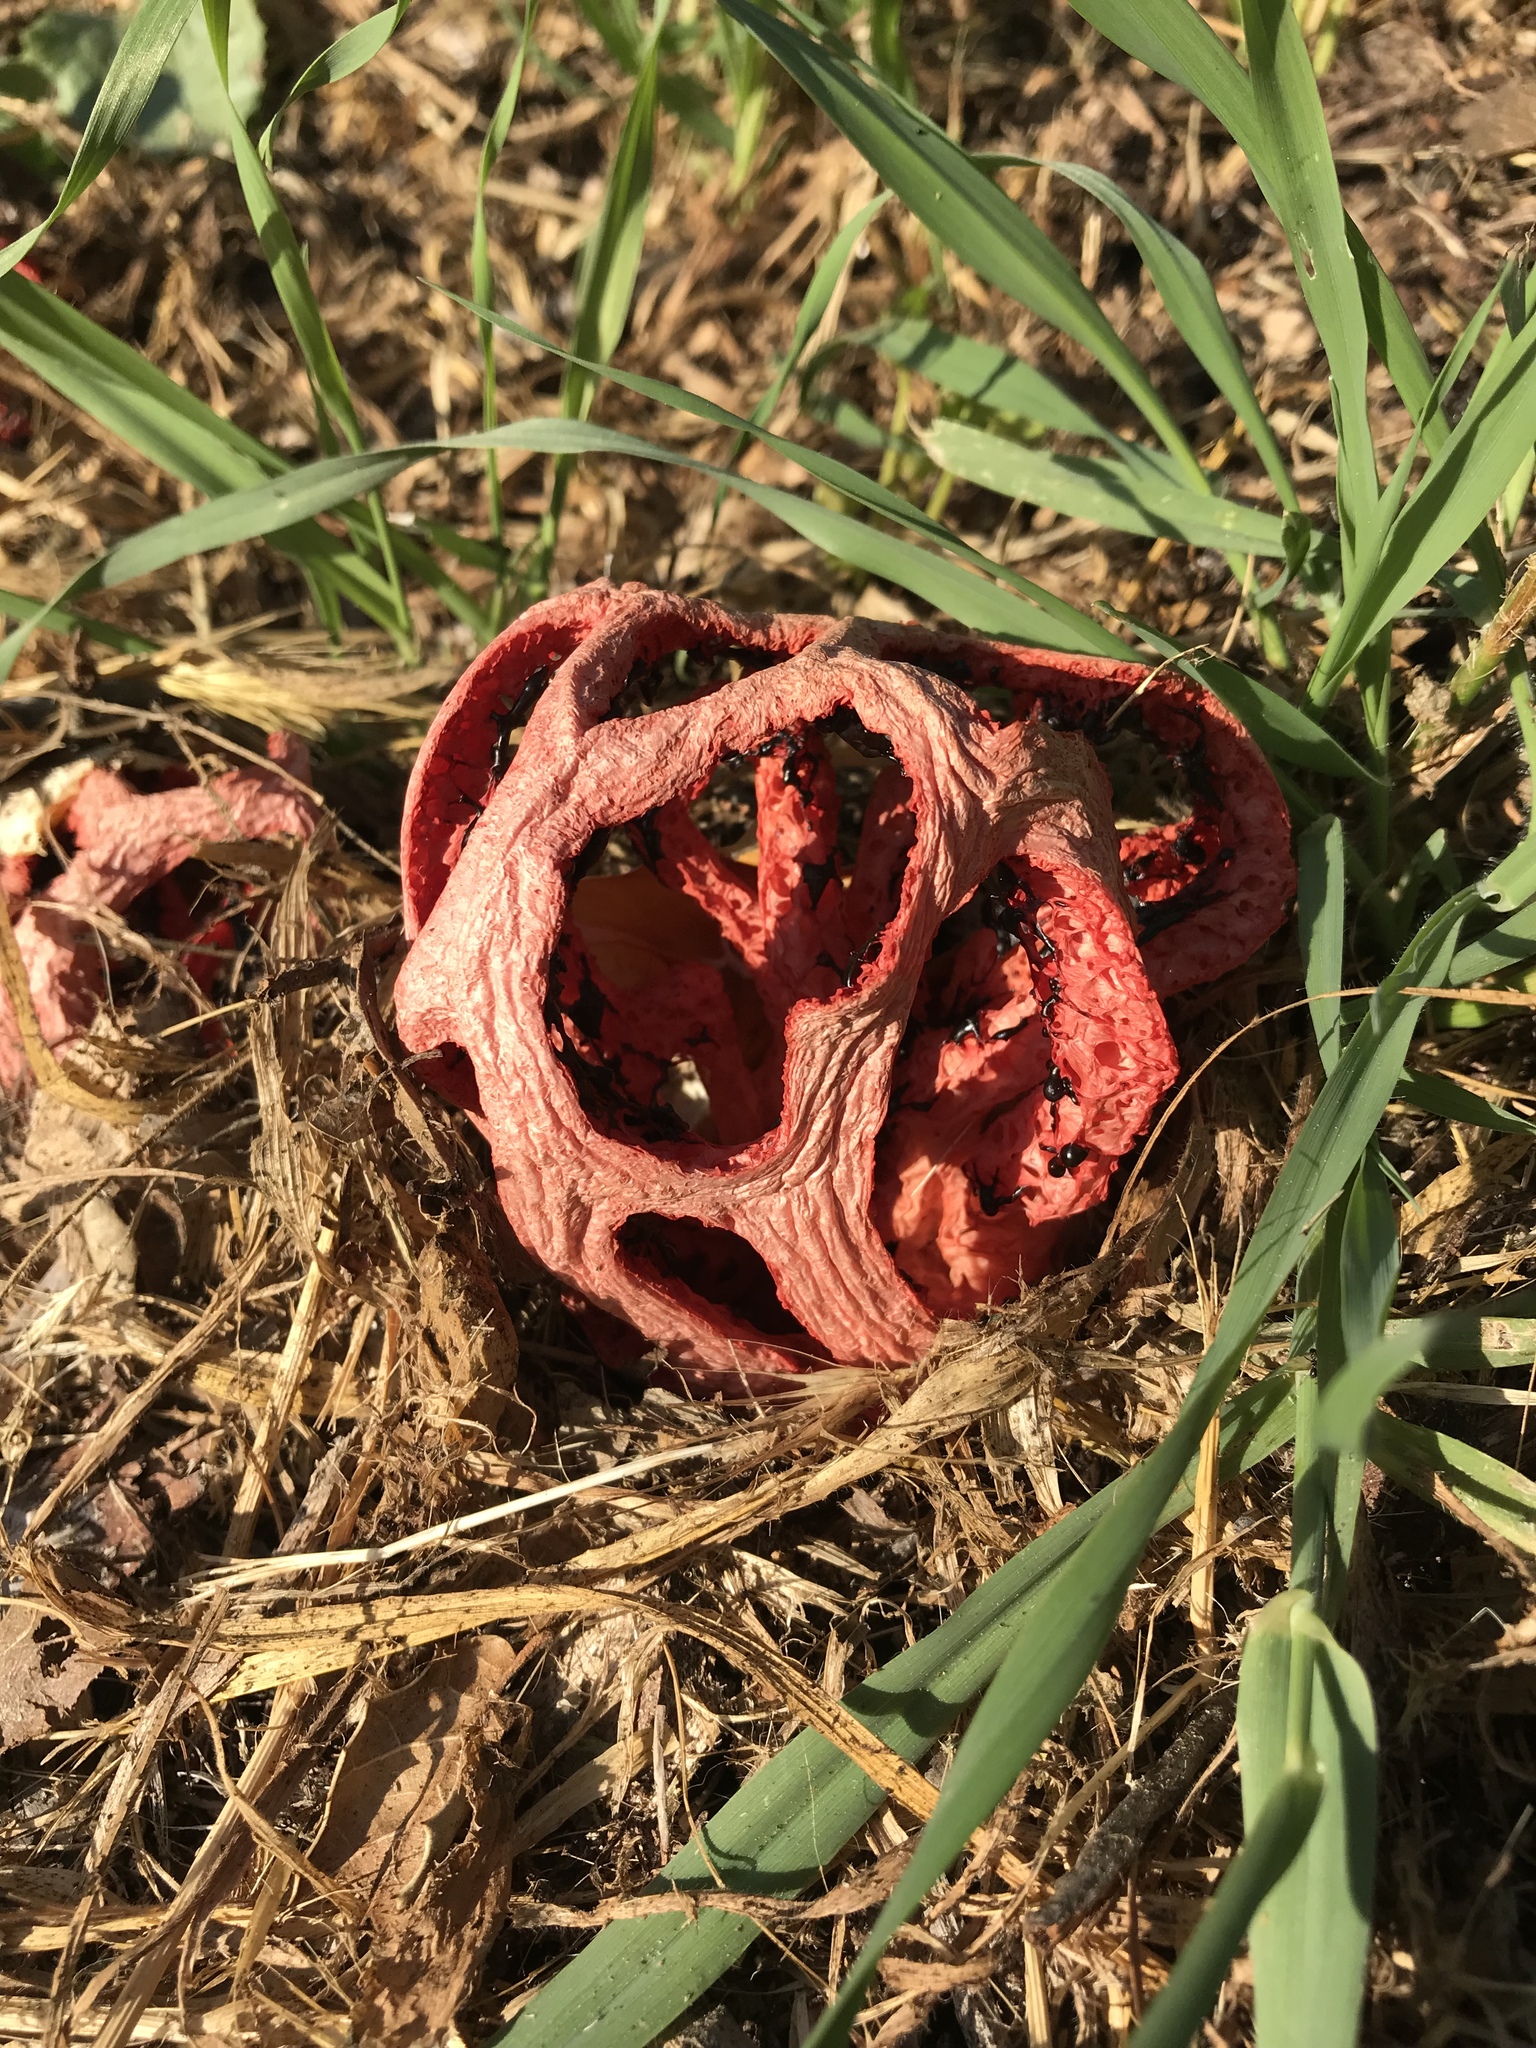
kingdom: Fungi
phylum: Basidiomycota
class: Agaricomycetes
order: Phallales
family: Phallaceae
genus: Clathrus
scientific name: Clathrus ruber
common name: Red cage
